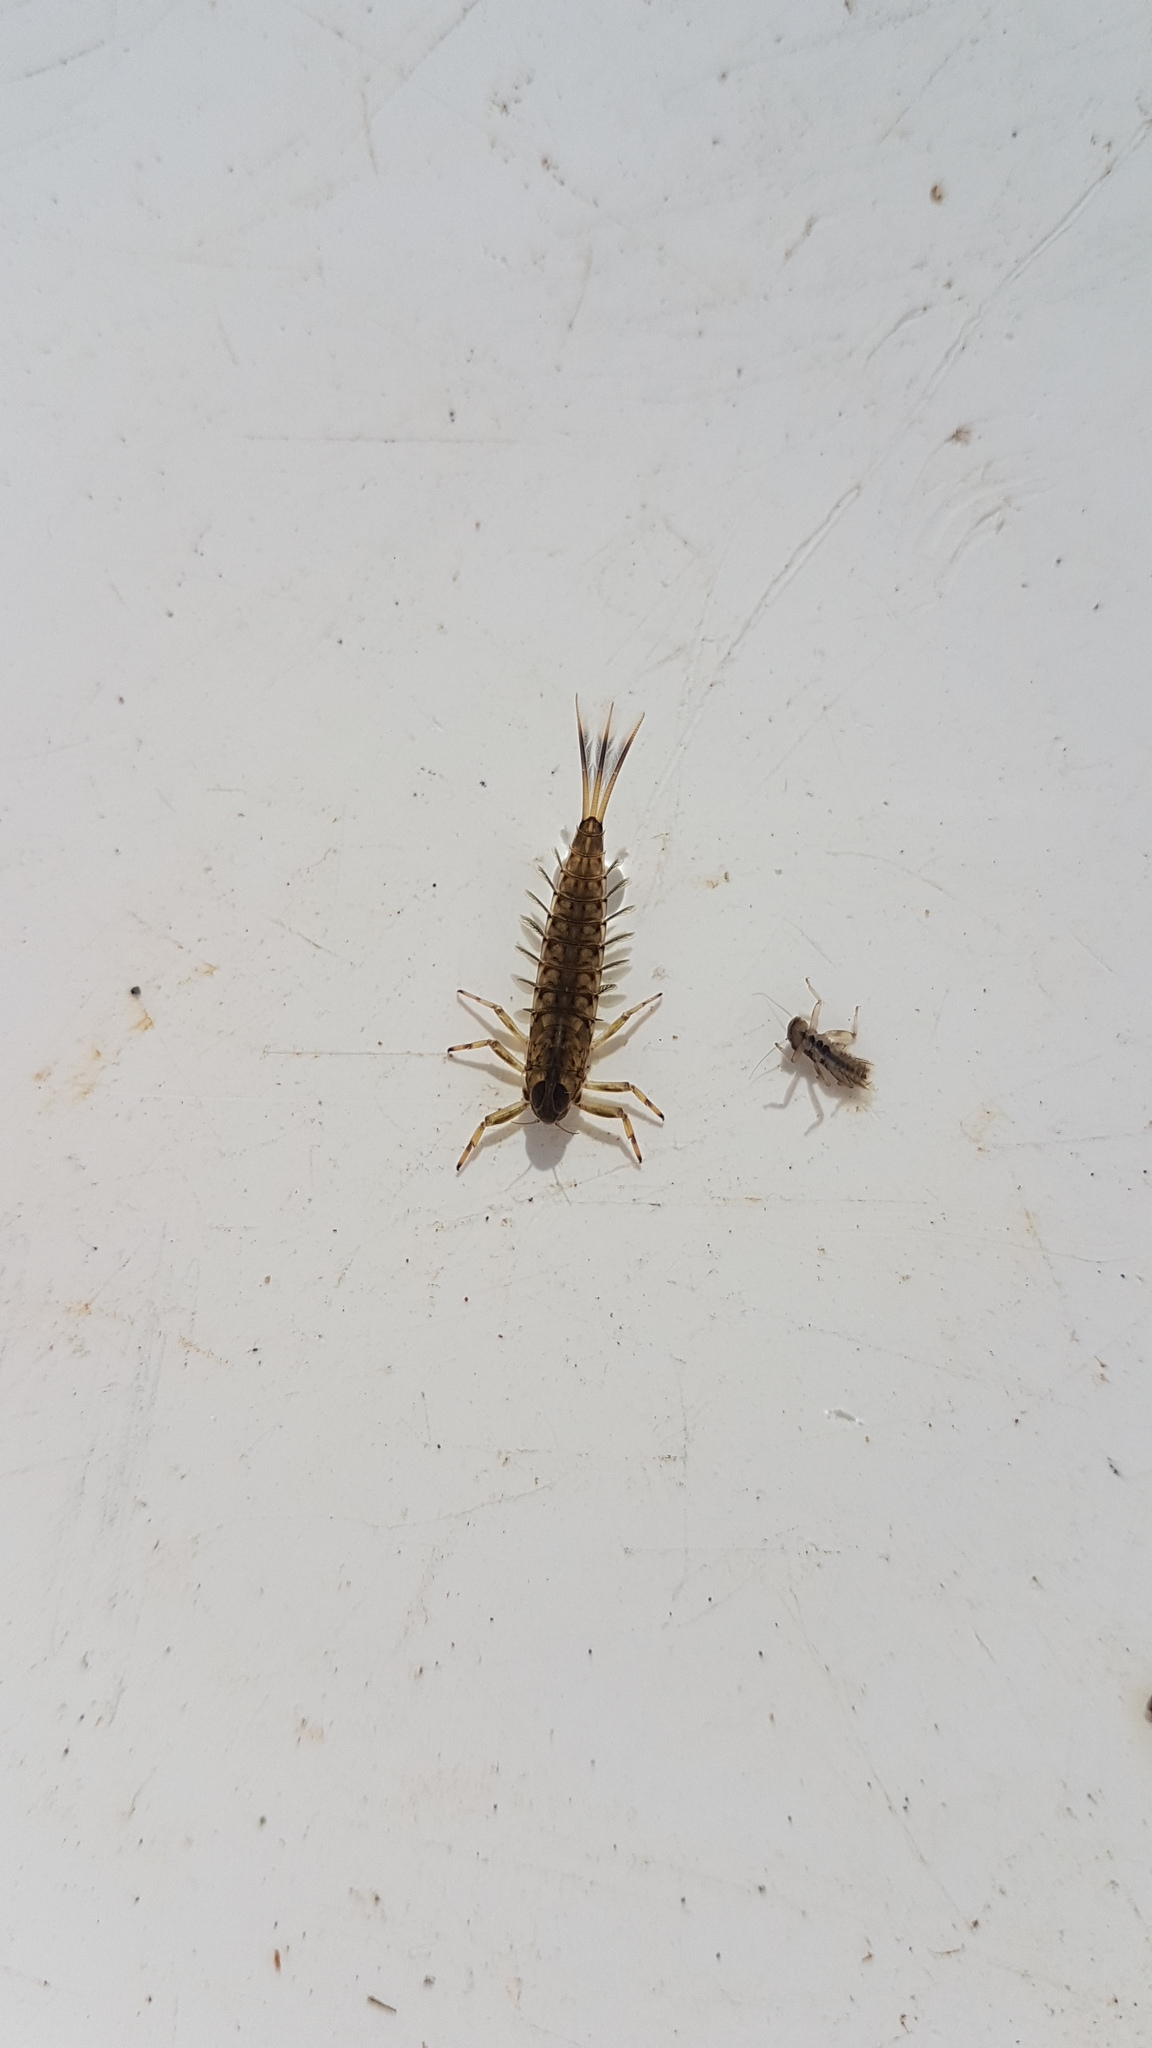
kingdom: Animalia
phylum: Arthropoda
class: Insecta
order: Ephemeroptera
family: Nesameletidae
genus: Nesameletus
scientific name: Nesameletus ornatus
